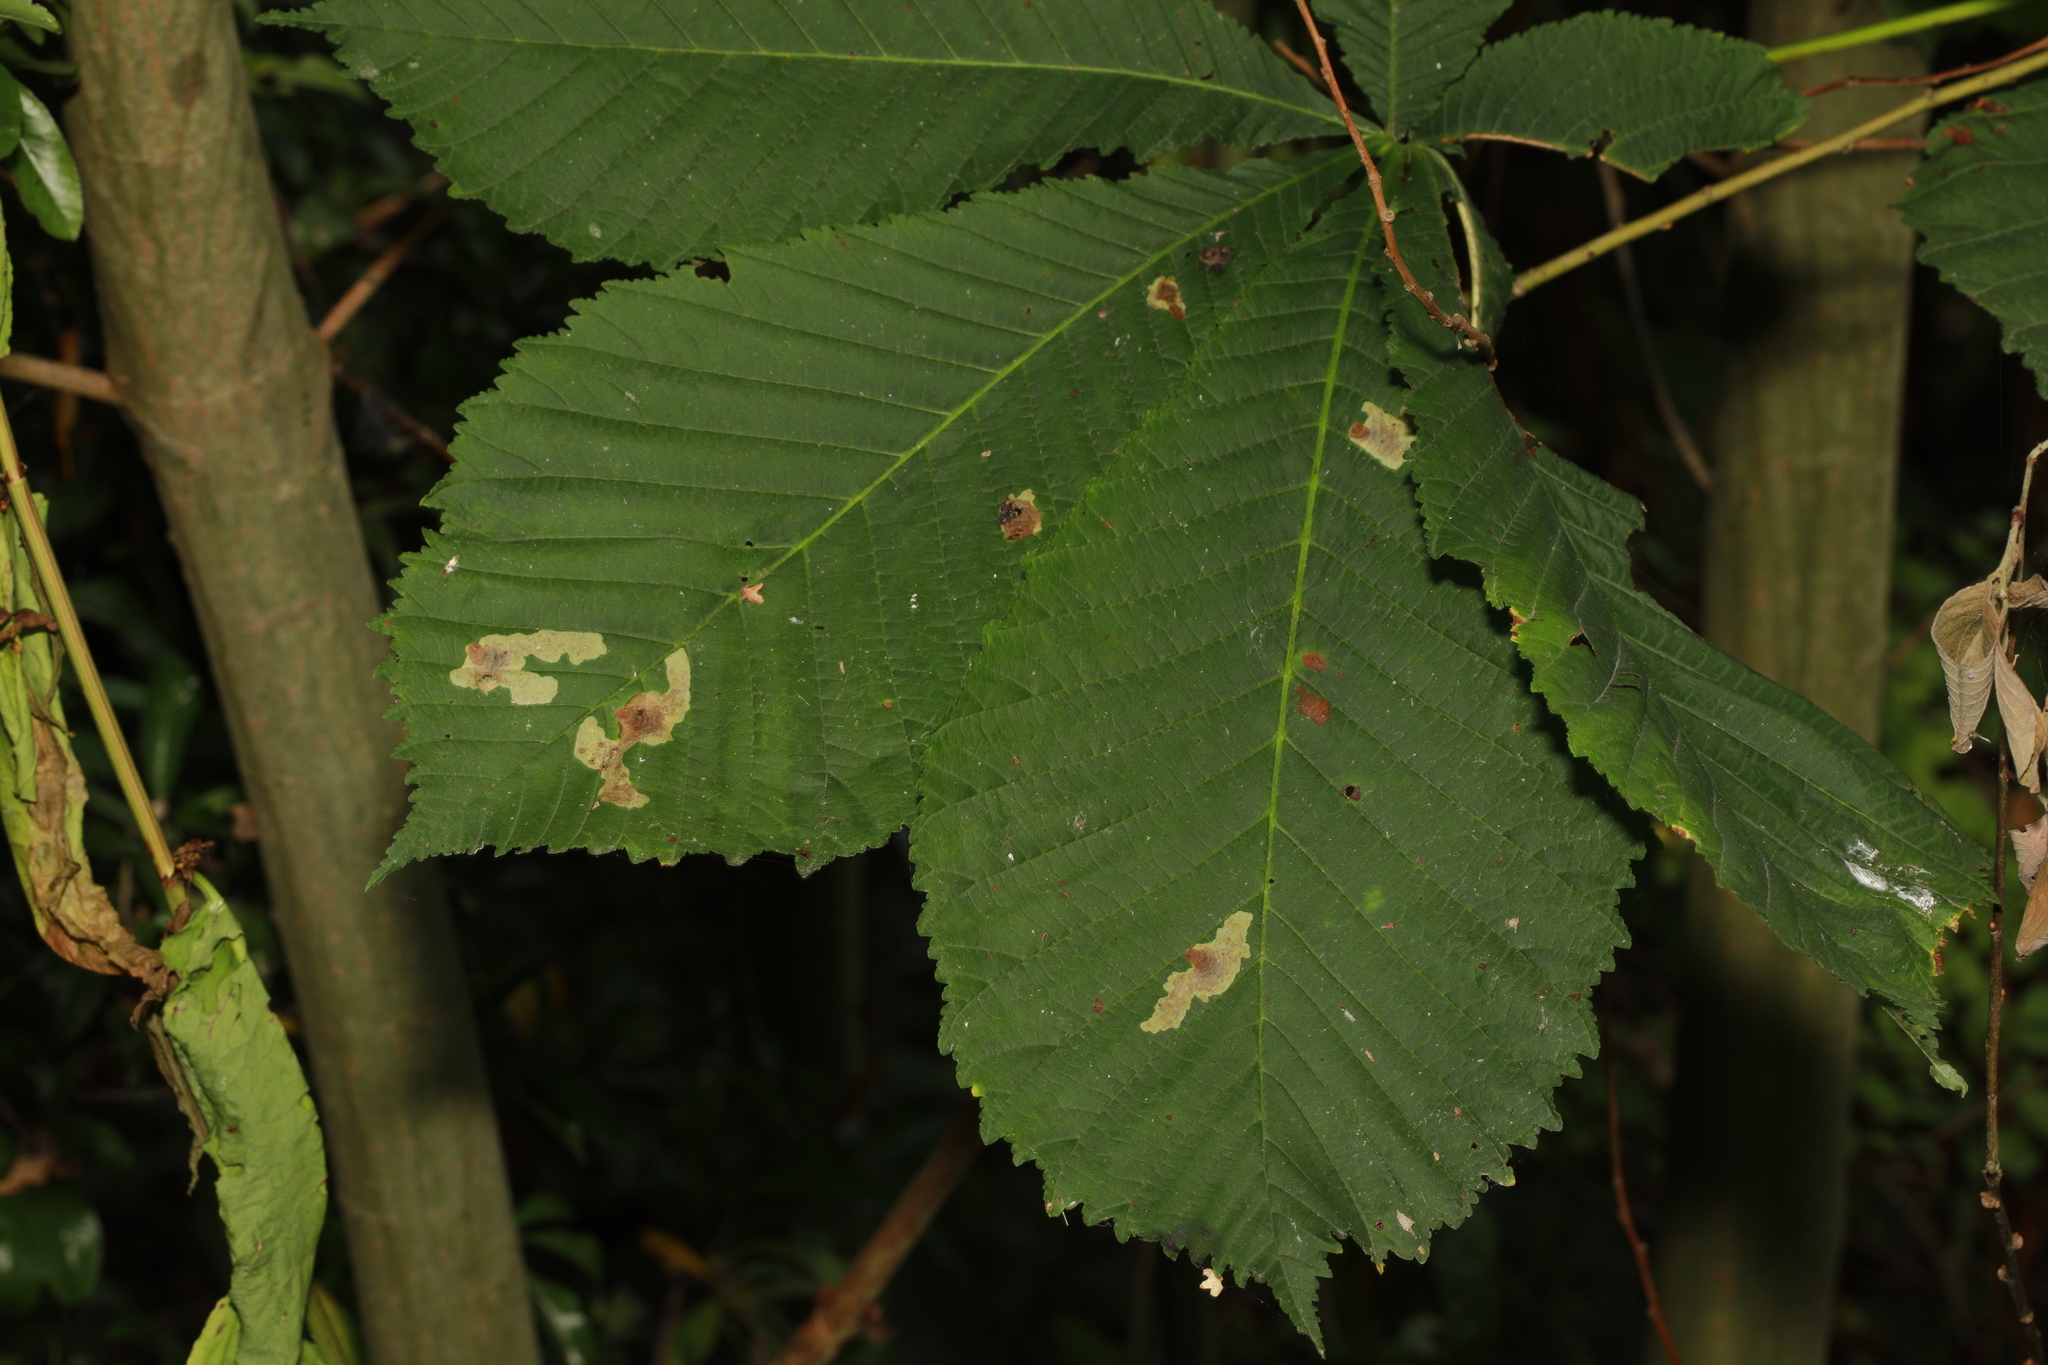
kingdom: Animalia
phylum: Arthropoda
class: Insecta
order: Lepidoptera
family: Gracillariidae
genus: Cameraria
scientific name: Cameraria ohridella
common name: Horse-chestnut leaf-miner
